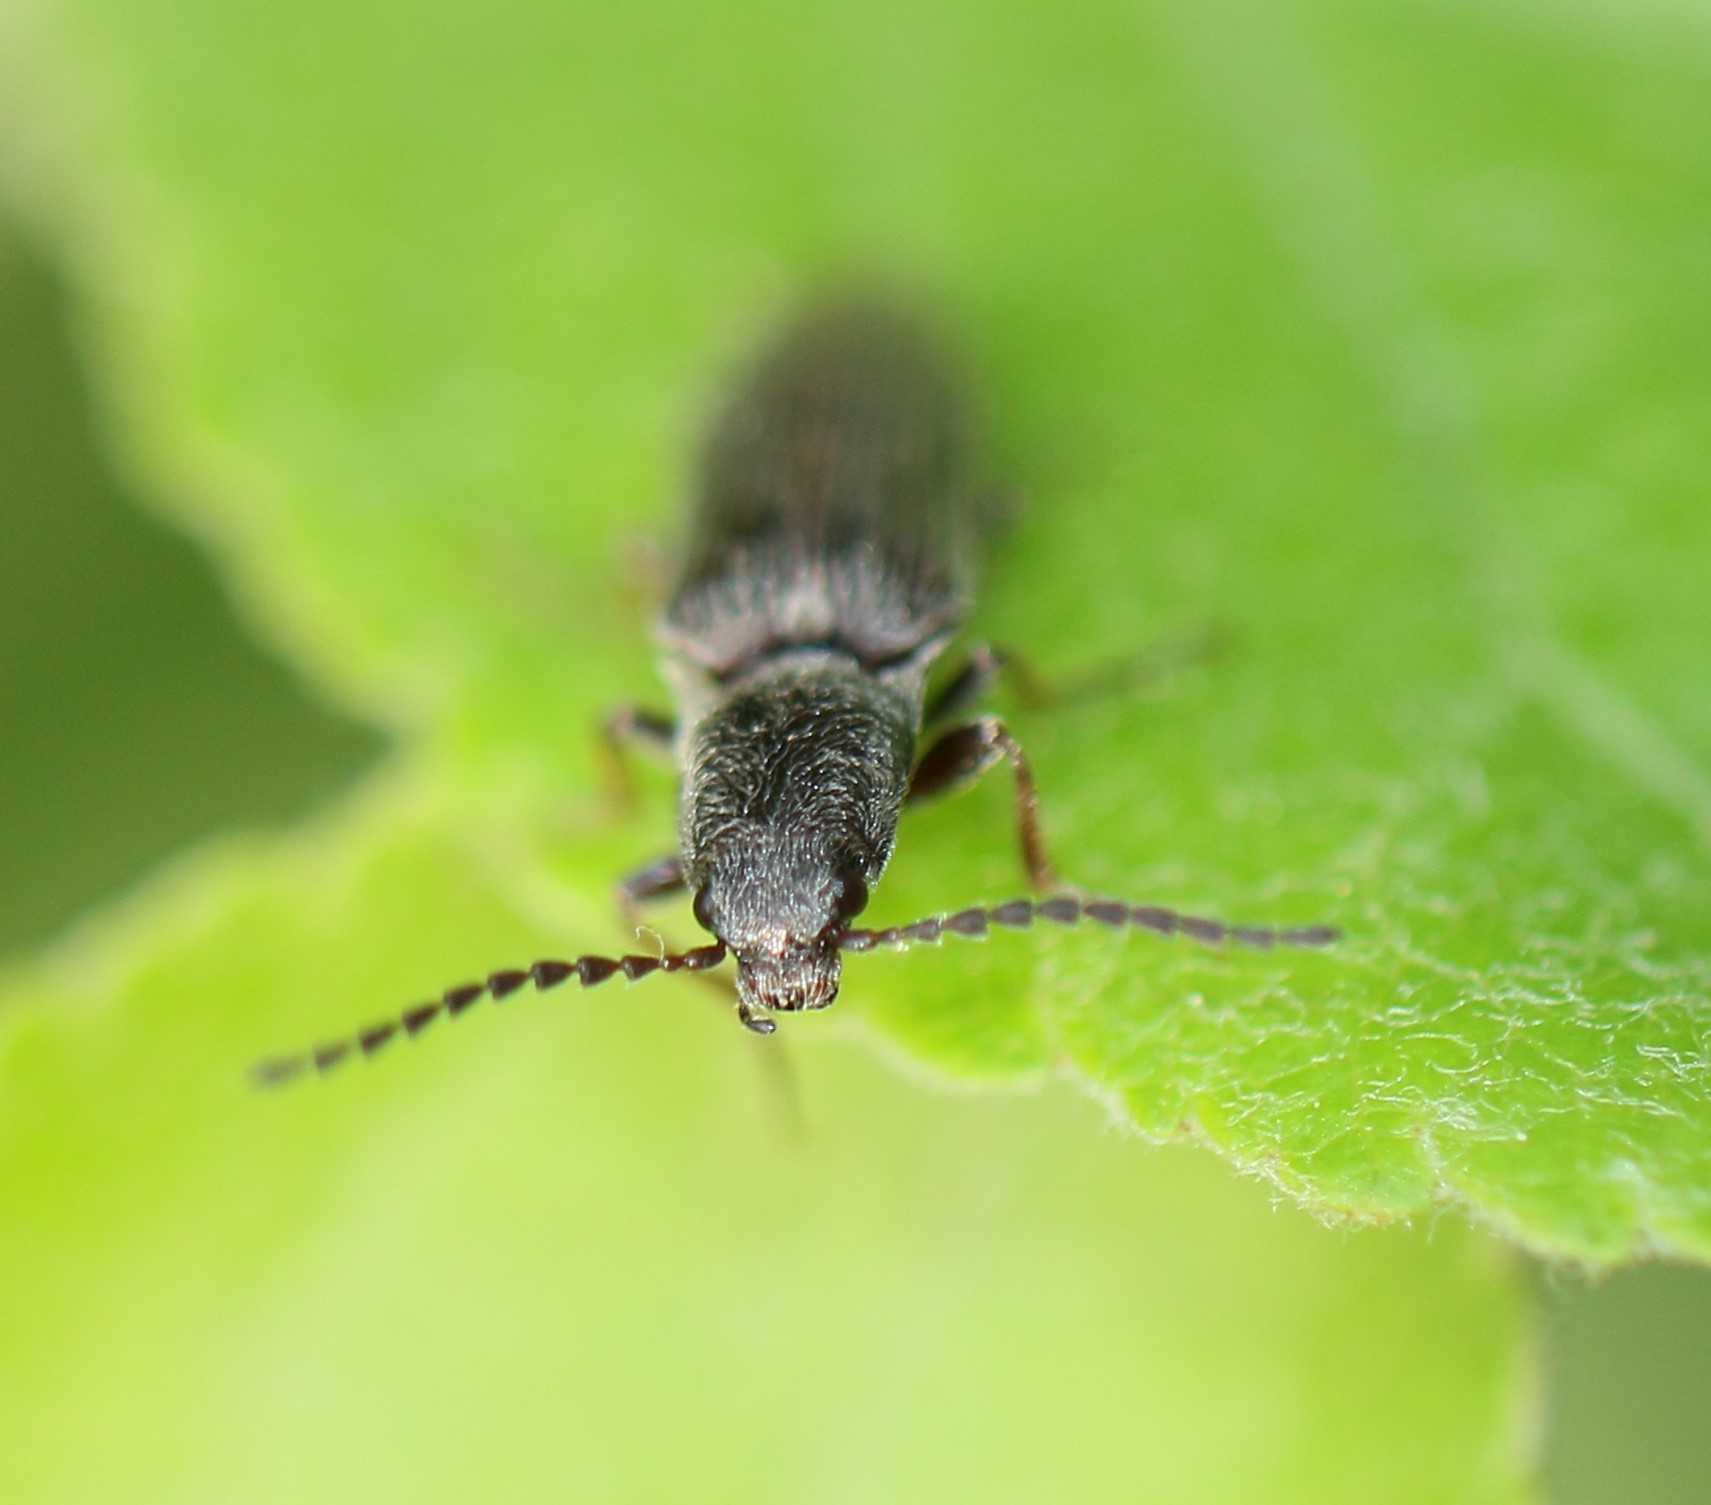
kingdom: Animalia
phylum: Arthropoda
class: Insecta
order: Coleoptera
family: Elateridae
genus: Sylvanelater
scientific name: Sylvanelater cylindriformis
